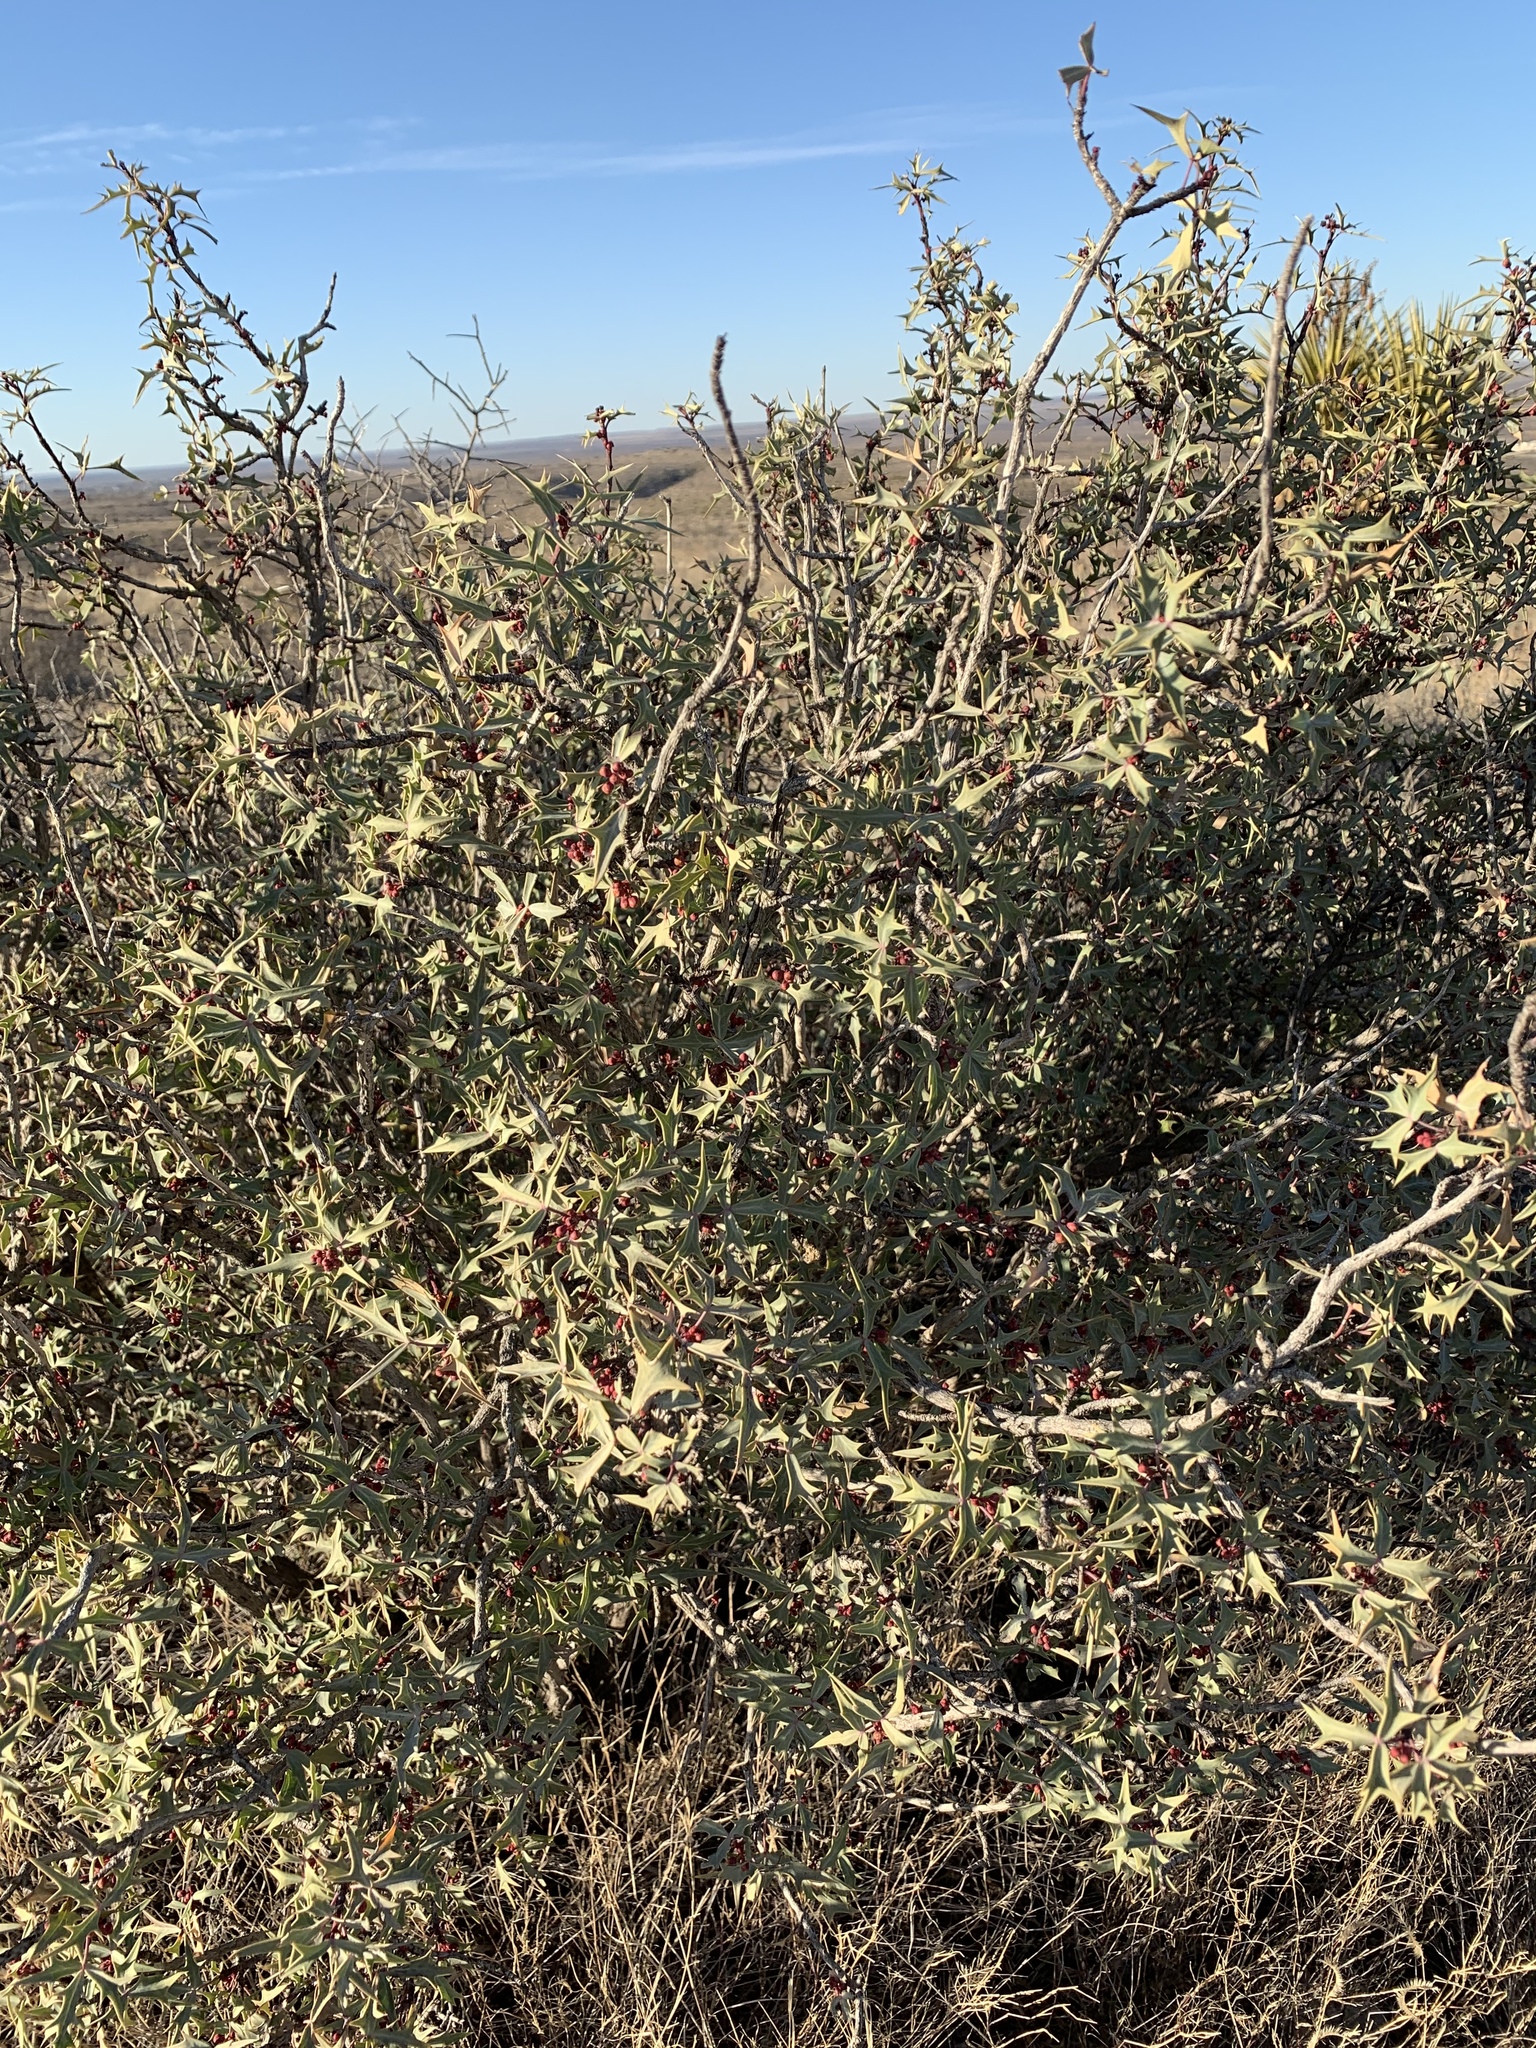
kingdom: Plantae
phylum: Tracheophyta
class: Magnoliopsida
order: Ranunculales
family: Berberidaceae
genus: Alloberberis
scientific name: Alloberberis trifoliolata
